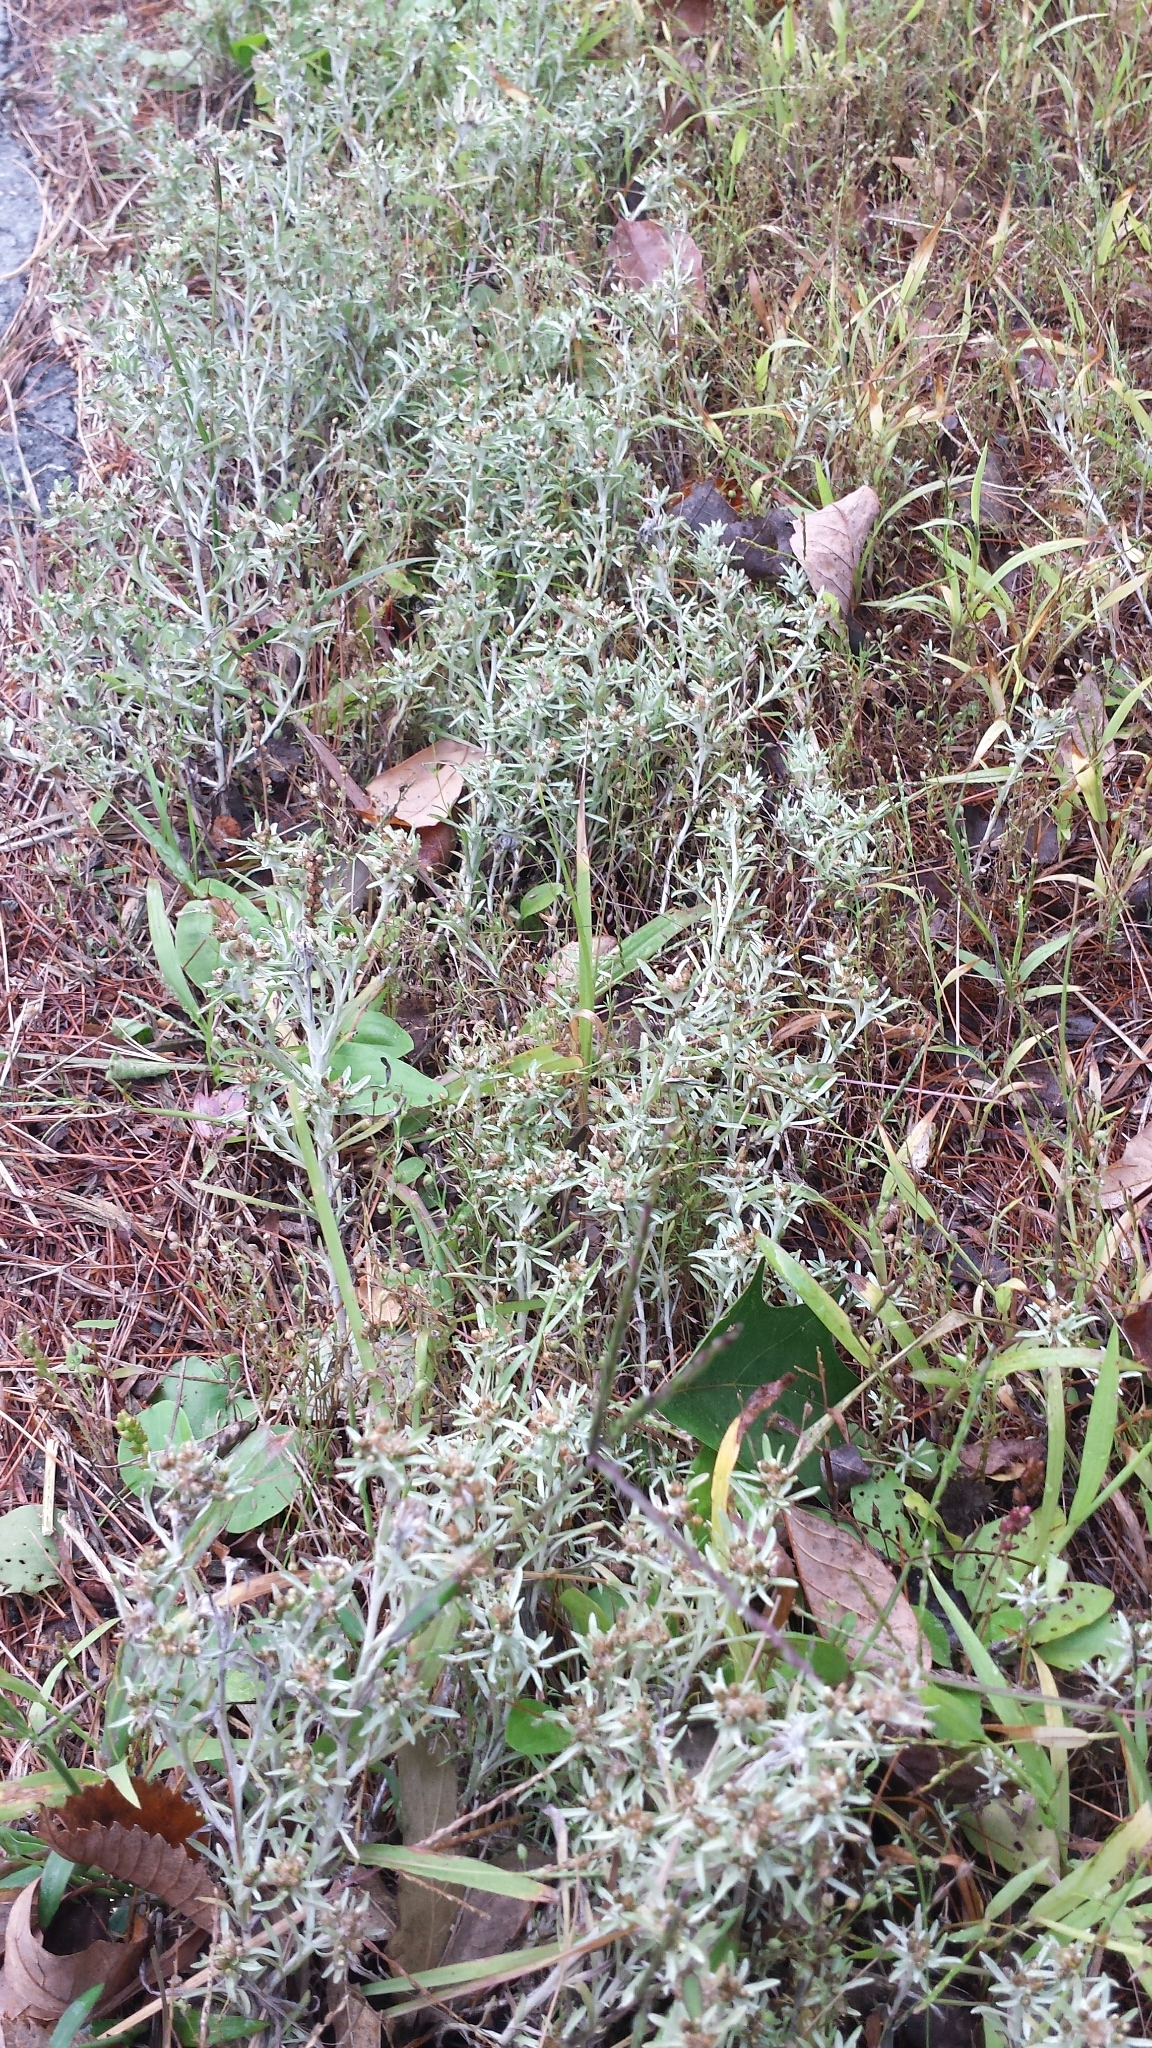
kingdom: Plantae
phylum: Tracheophyta
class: Magnoliopsida
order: Asterales
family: Asteraceae
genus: Gnaphalium
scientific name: Gnaphalium uliginosum
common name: Marsh cudweed
